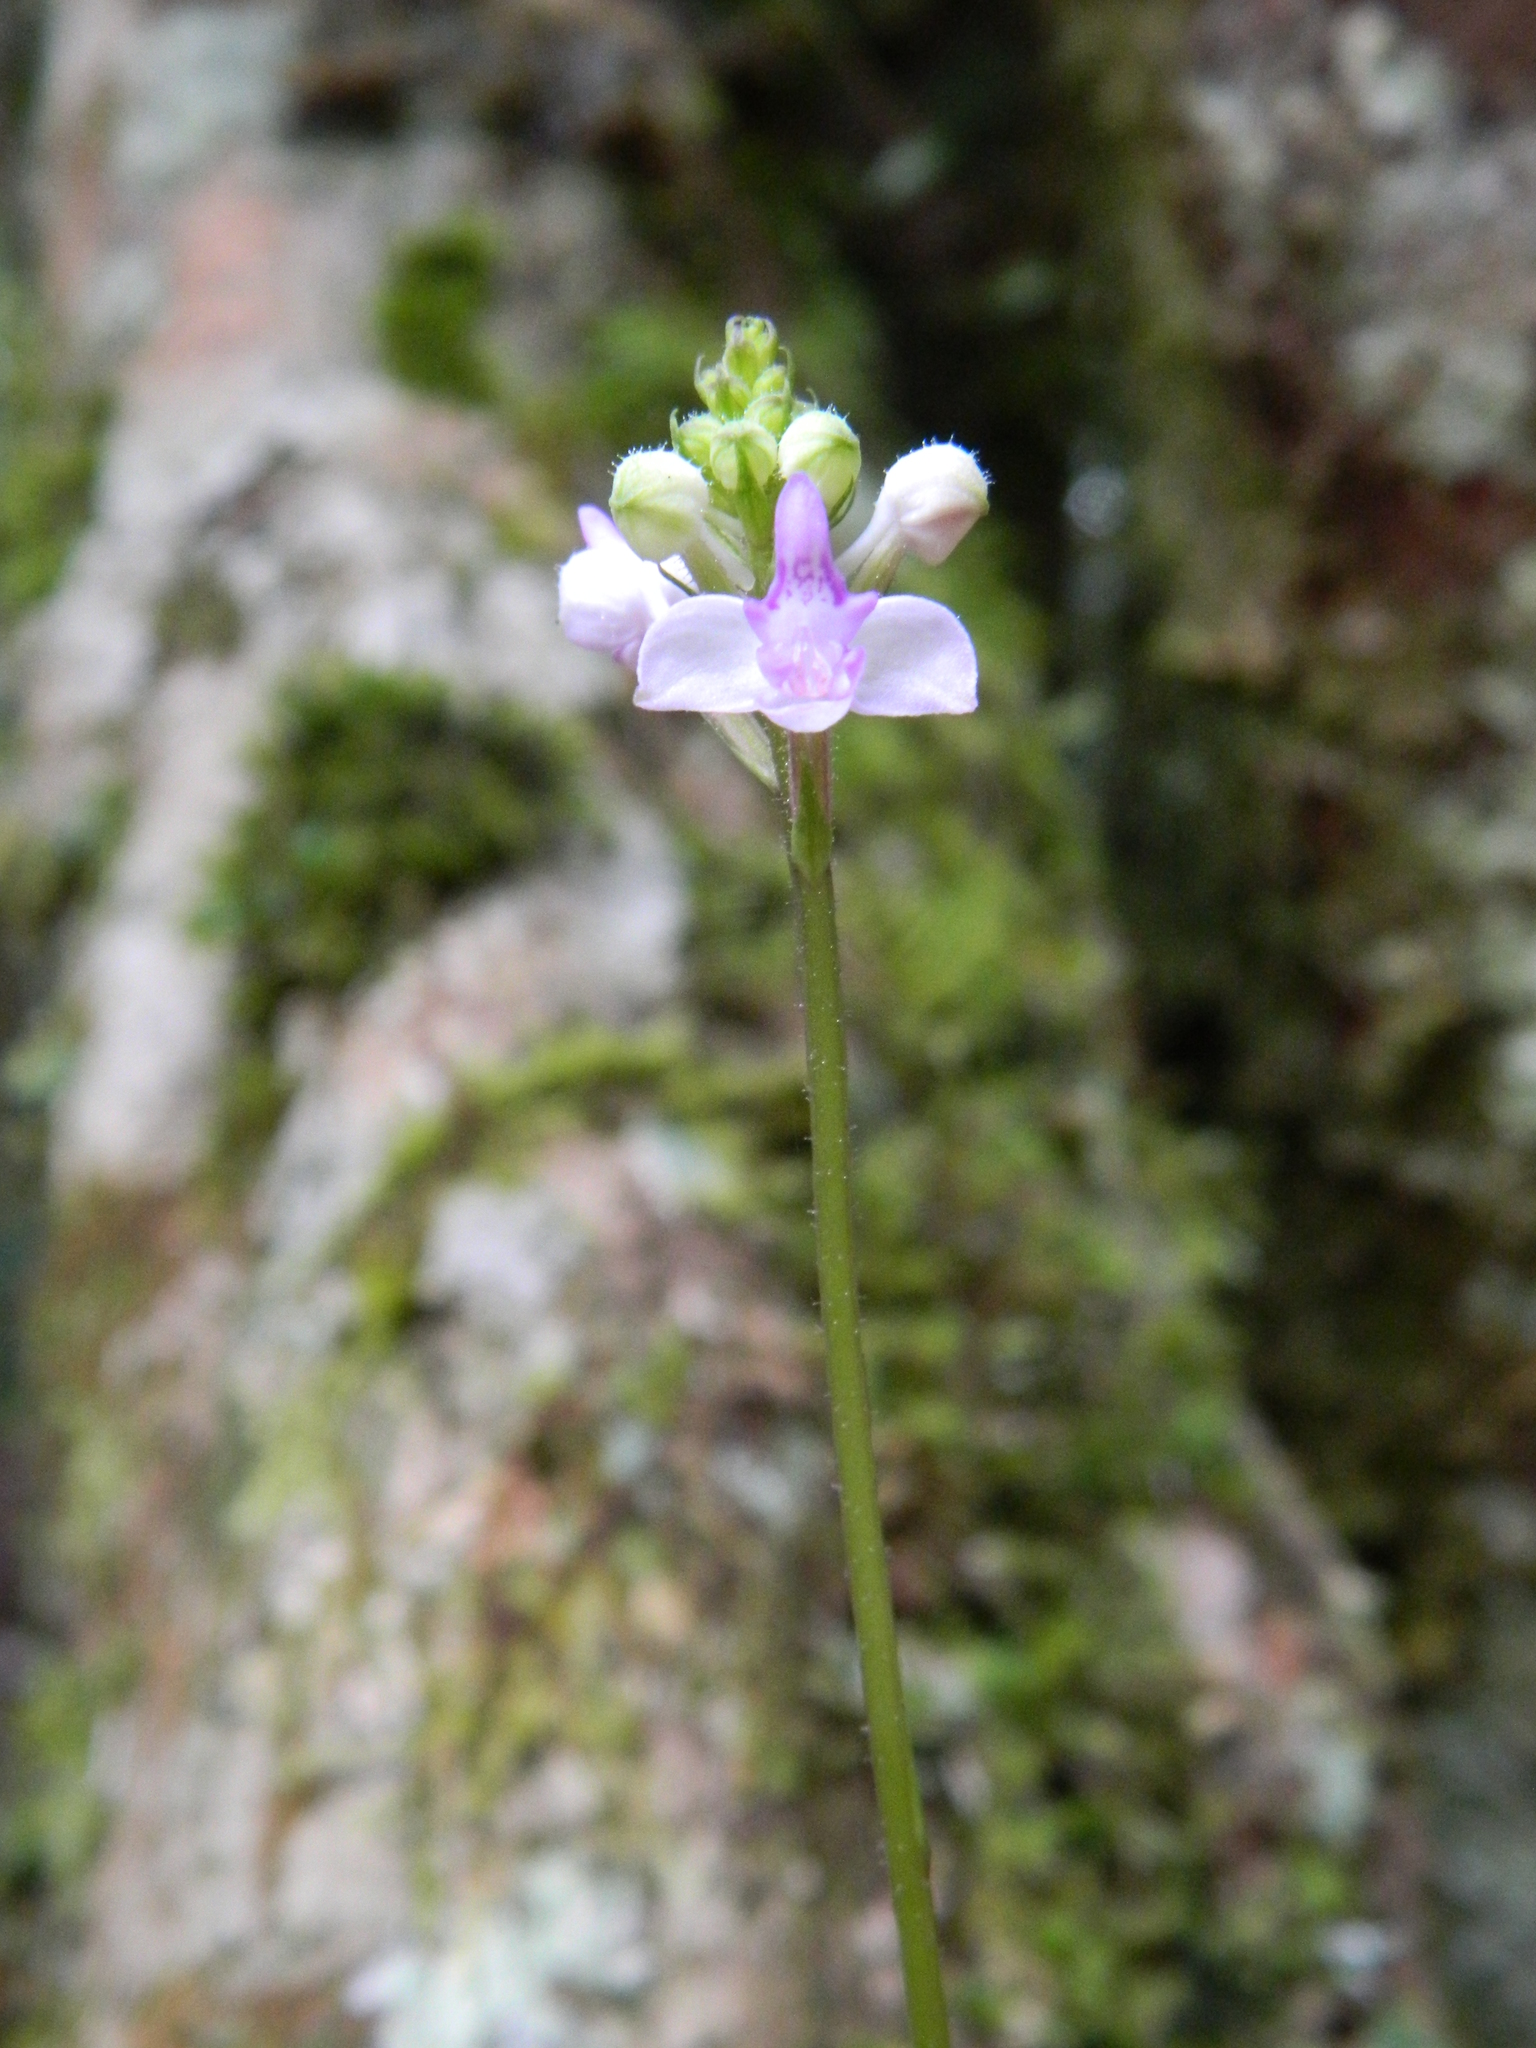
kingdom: Plantae
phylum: Tracheophyta
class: Liliopsida
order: Asparagales
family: Orchidaceae
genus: Cynorkis
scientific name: Cynorkis ridleyi
